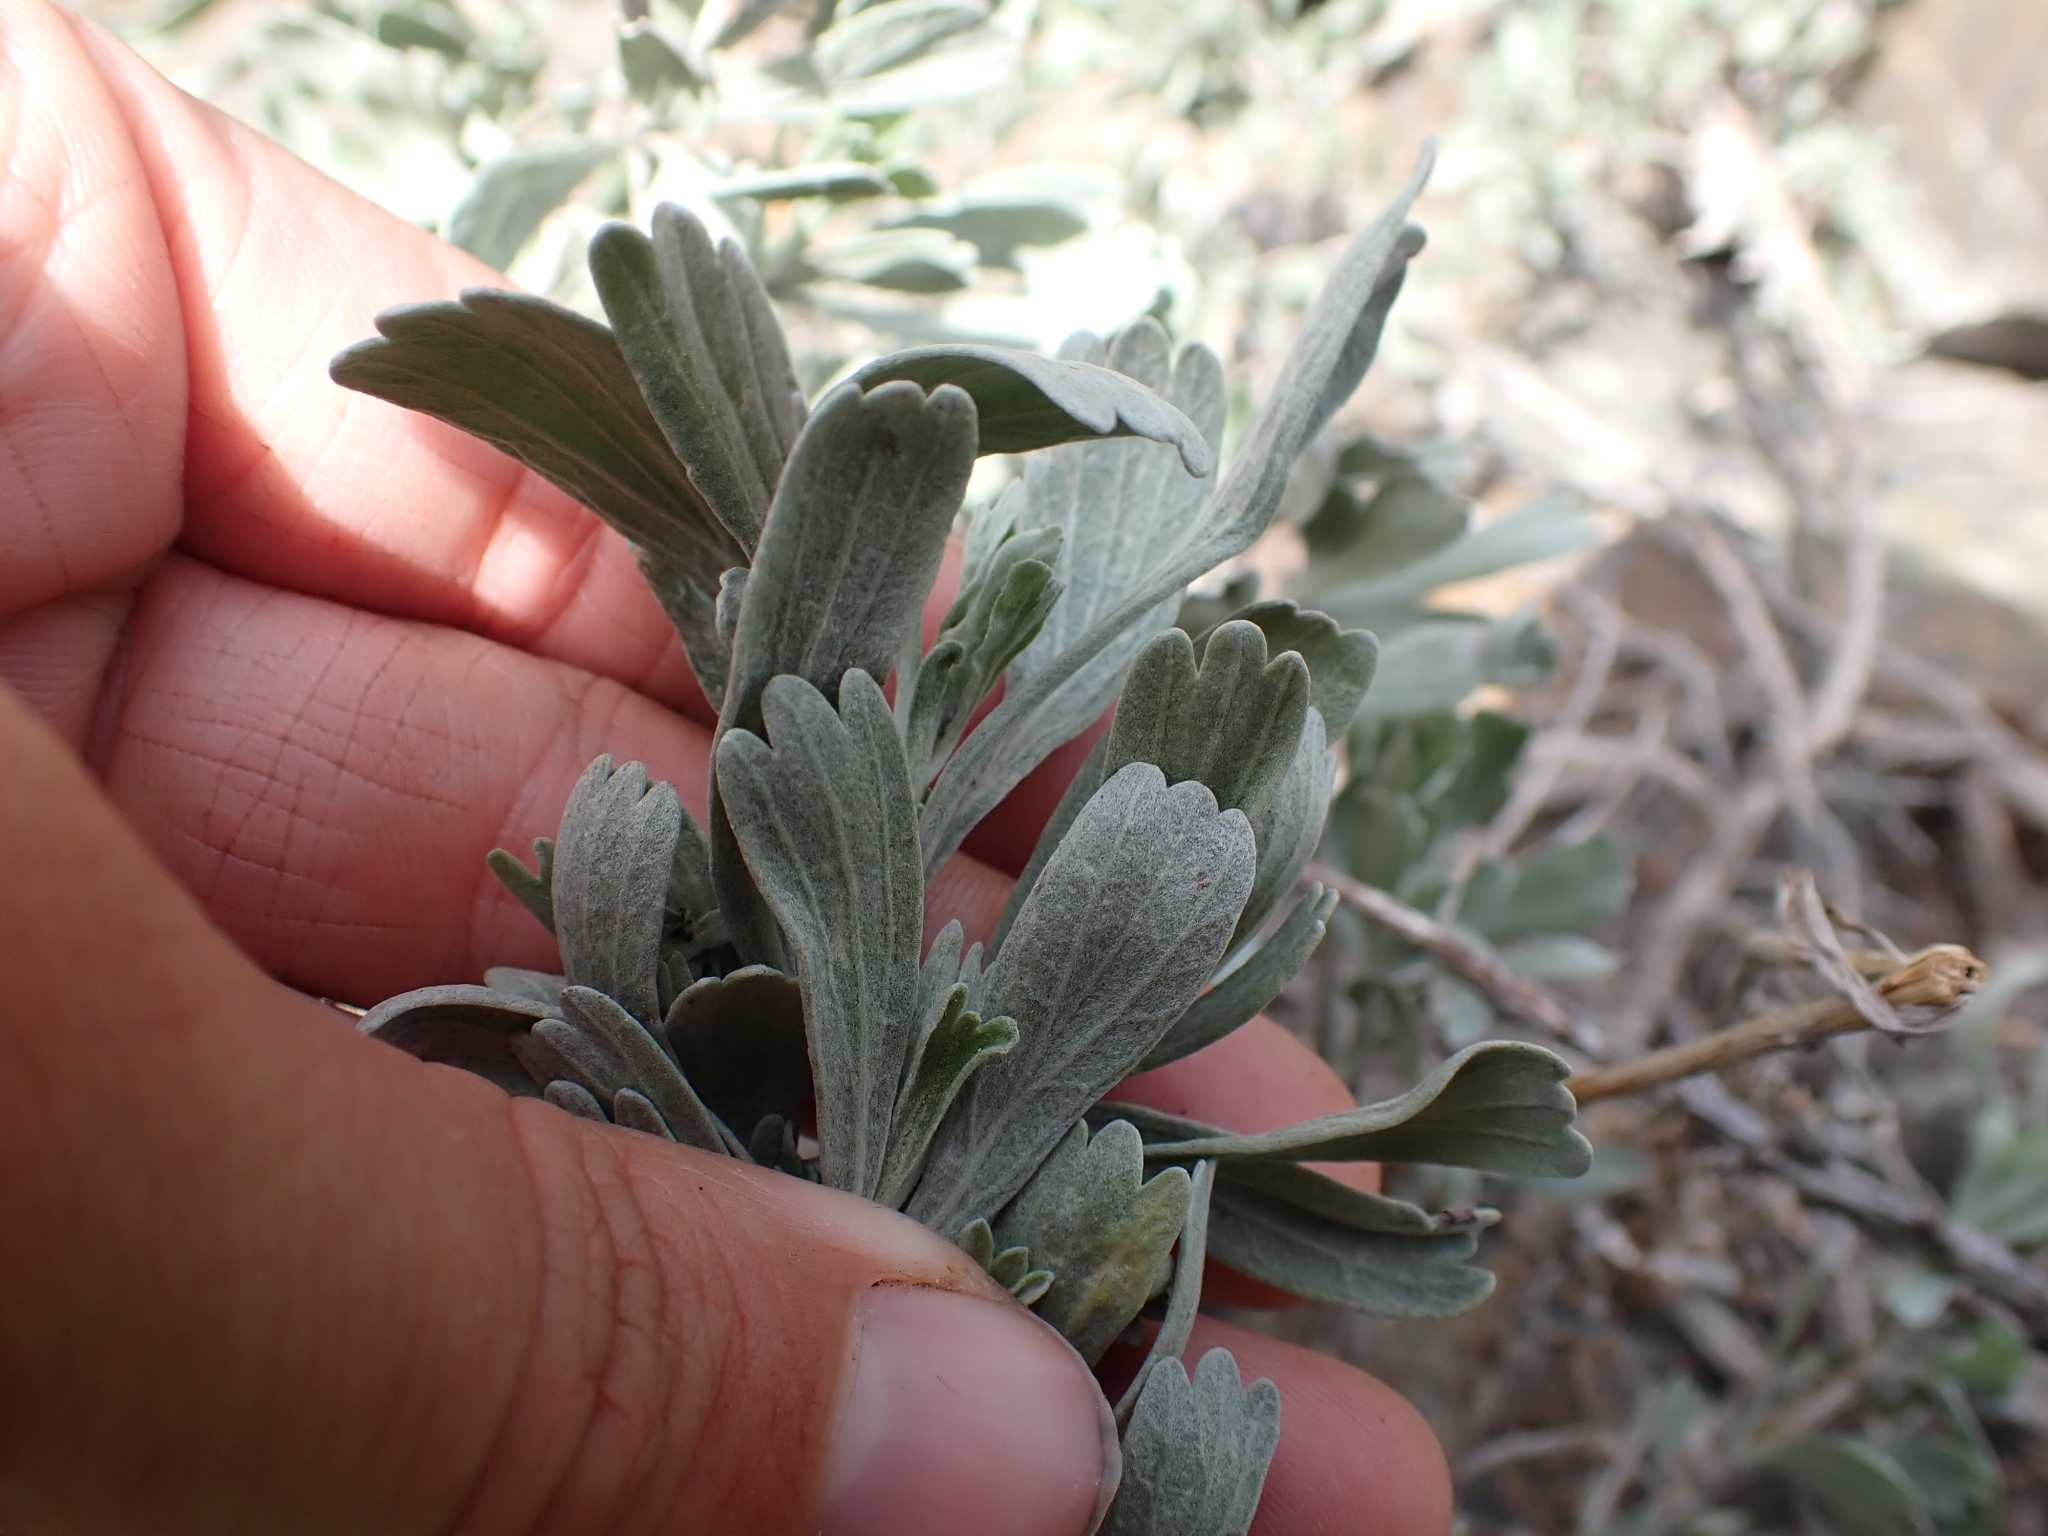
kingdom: Plantae
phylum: Tracheophyta
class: Magnoliopsida
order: Asterales
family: Asteraceae
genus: Artemisia
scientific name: Artemisia tridentata
